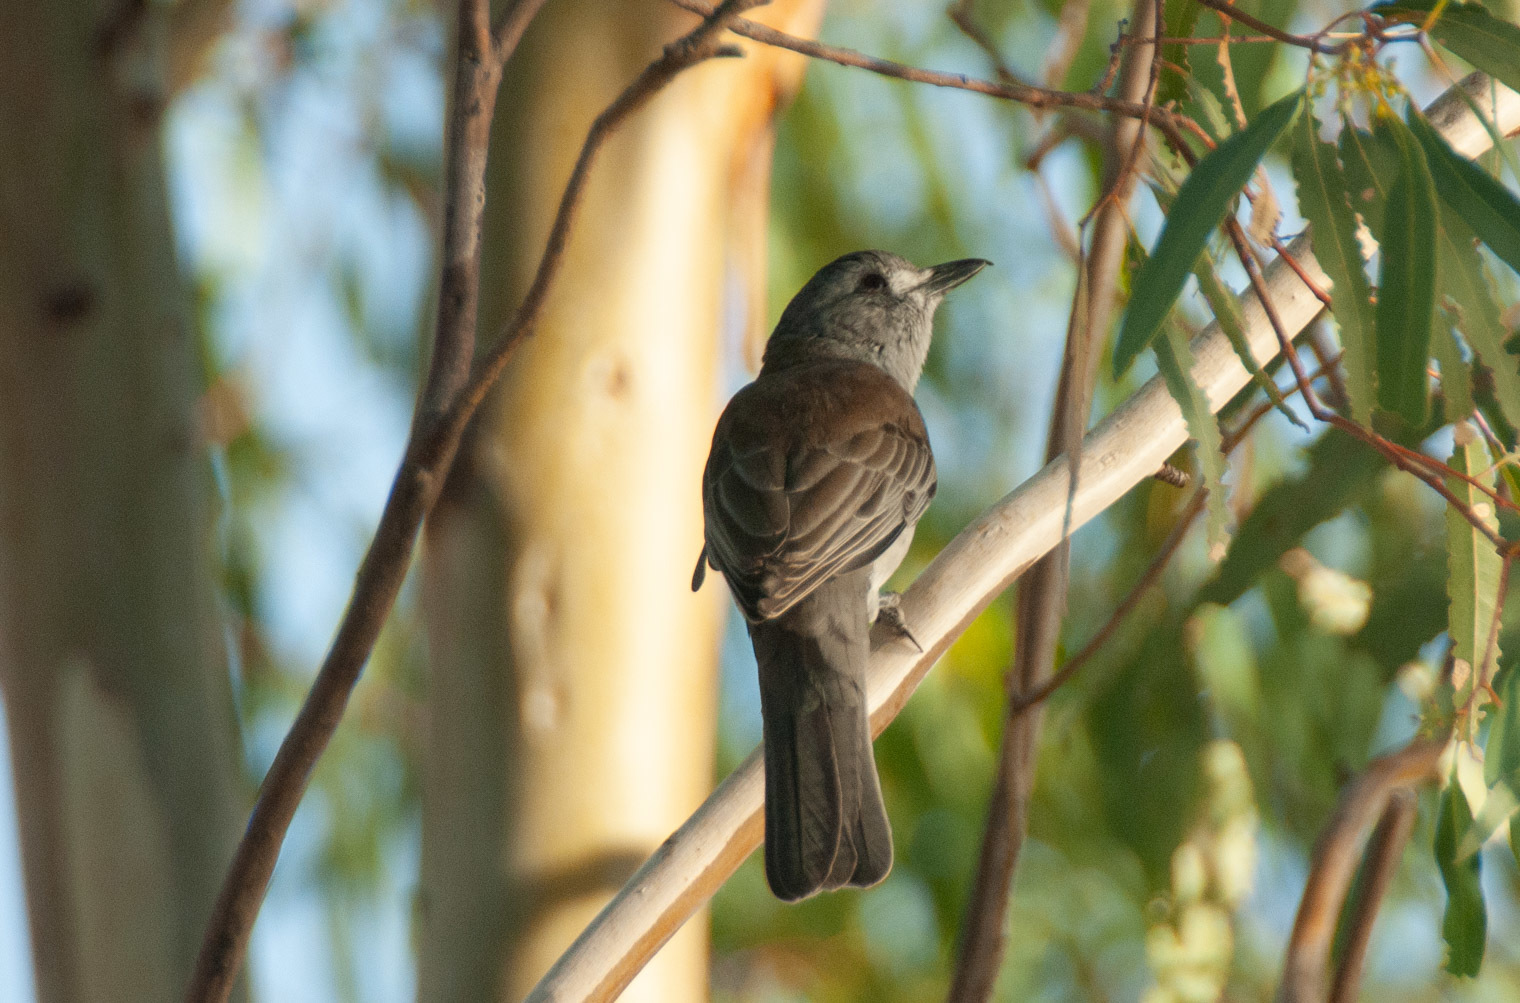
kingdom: Animalia
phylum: Chordata
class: Aves
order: Passeriformes
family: Pachycephalidae
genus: Colluricincla
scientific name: Colluricincla harmonica
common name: Grey shrikethrush
